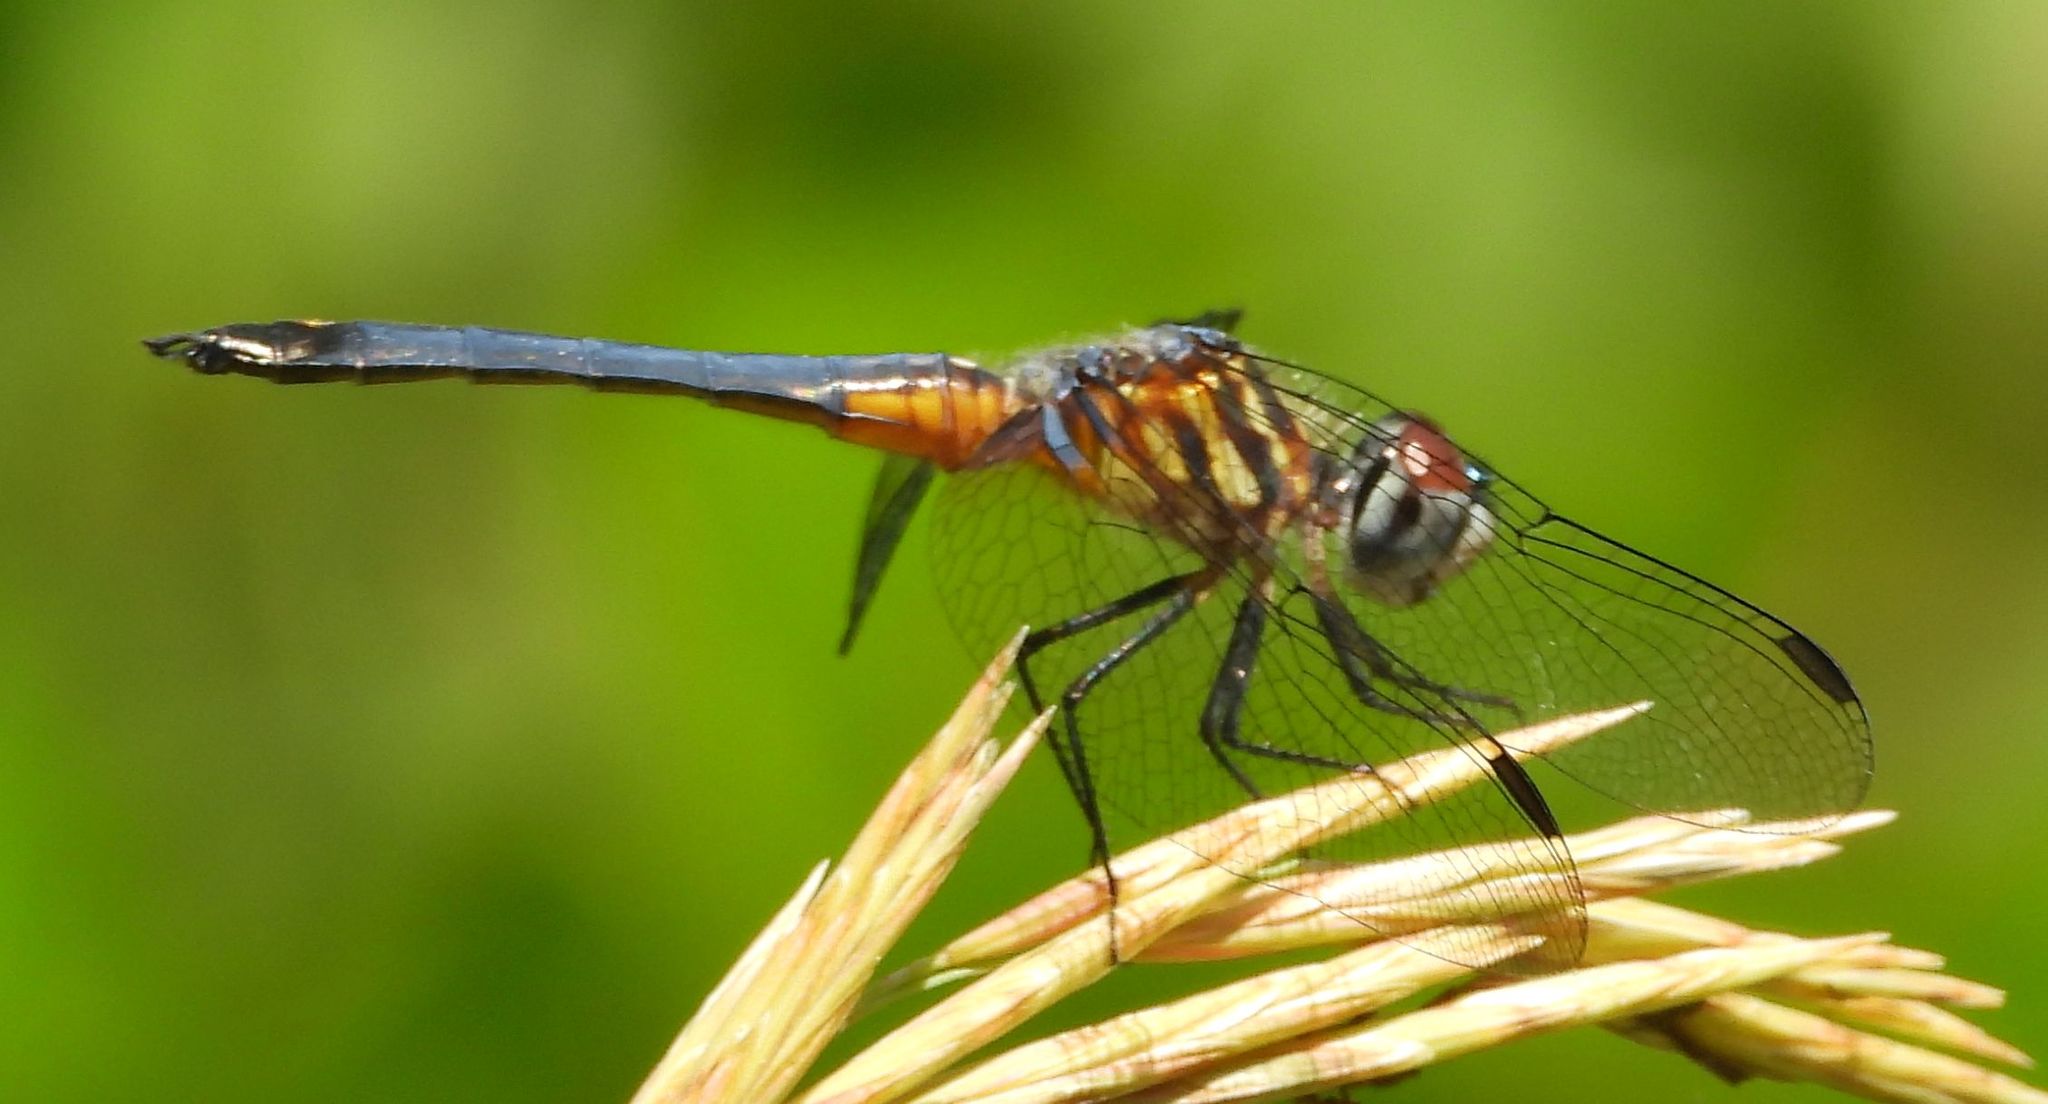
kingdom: Animalia
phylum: Arthropoda
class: Insecta
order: Odonata
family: Libellulidae
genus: Pachydiplax
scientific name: Pachydiplax longipennis
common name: Blue dasher
